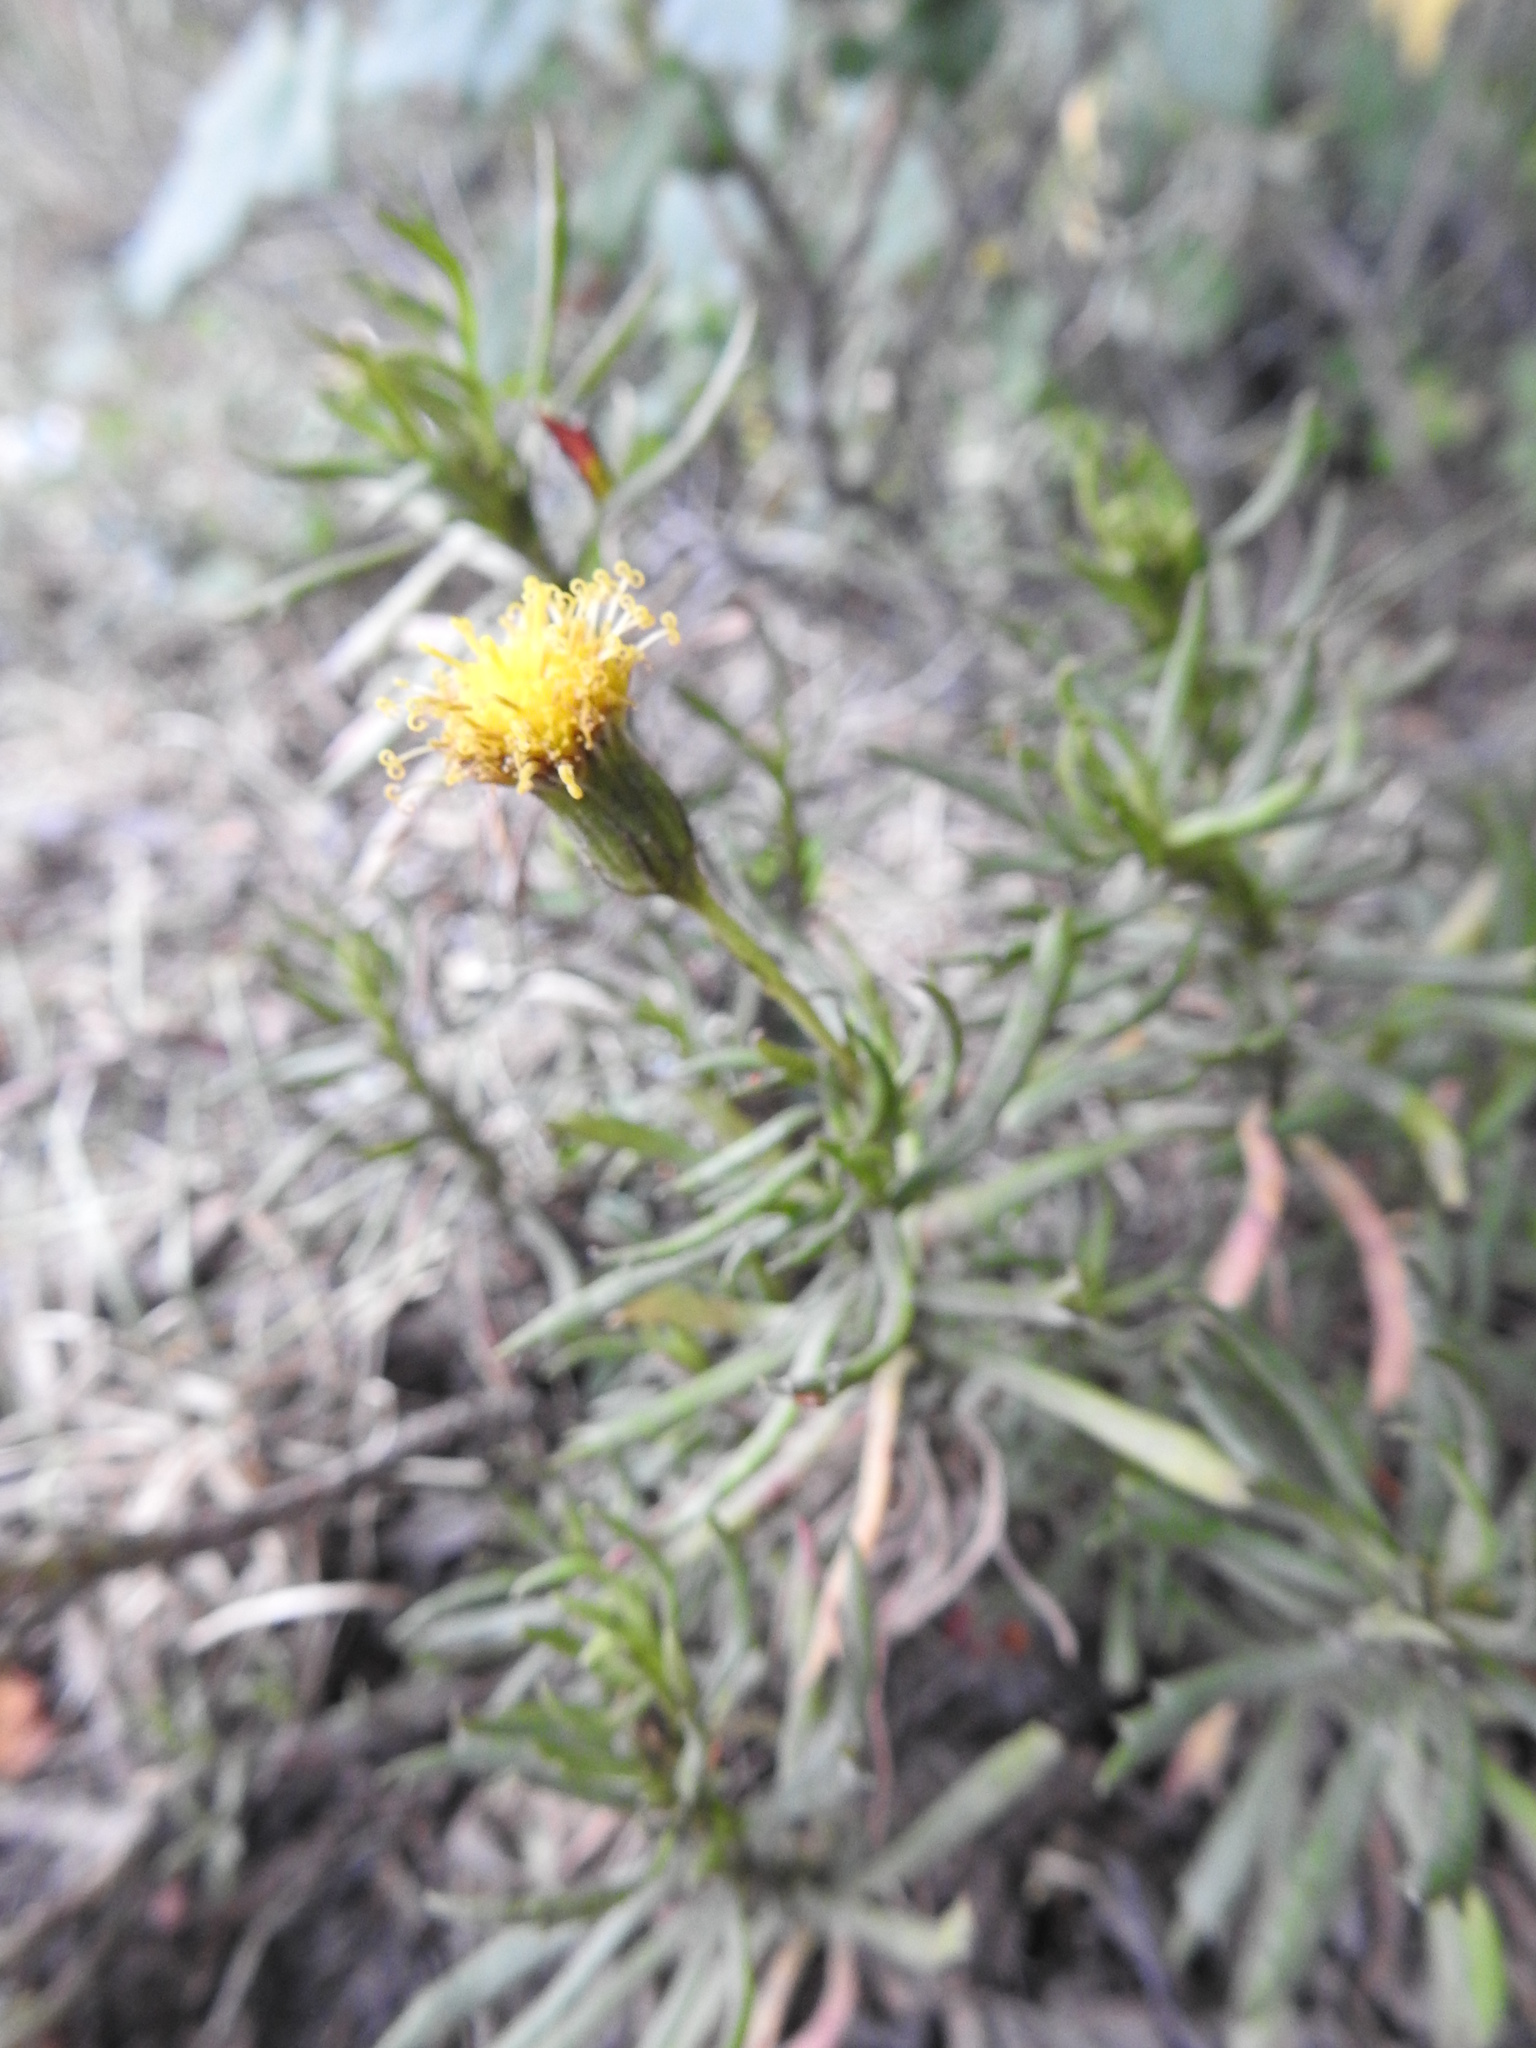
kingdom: Plantae
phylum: Tracheophyta
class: Magnoliopsida
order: Asterales
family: Asteraceae
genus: Senecio
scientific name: Senecio tricuspidatus
